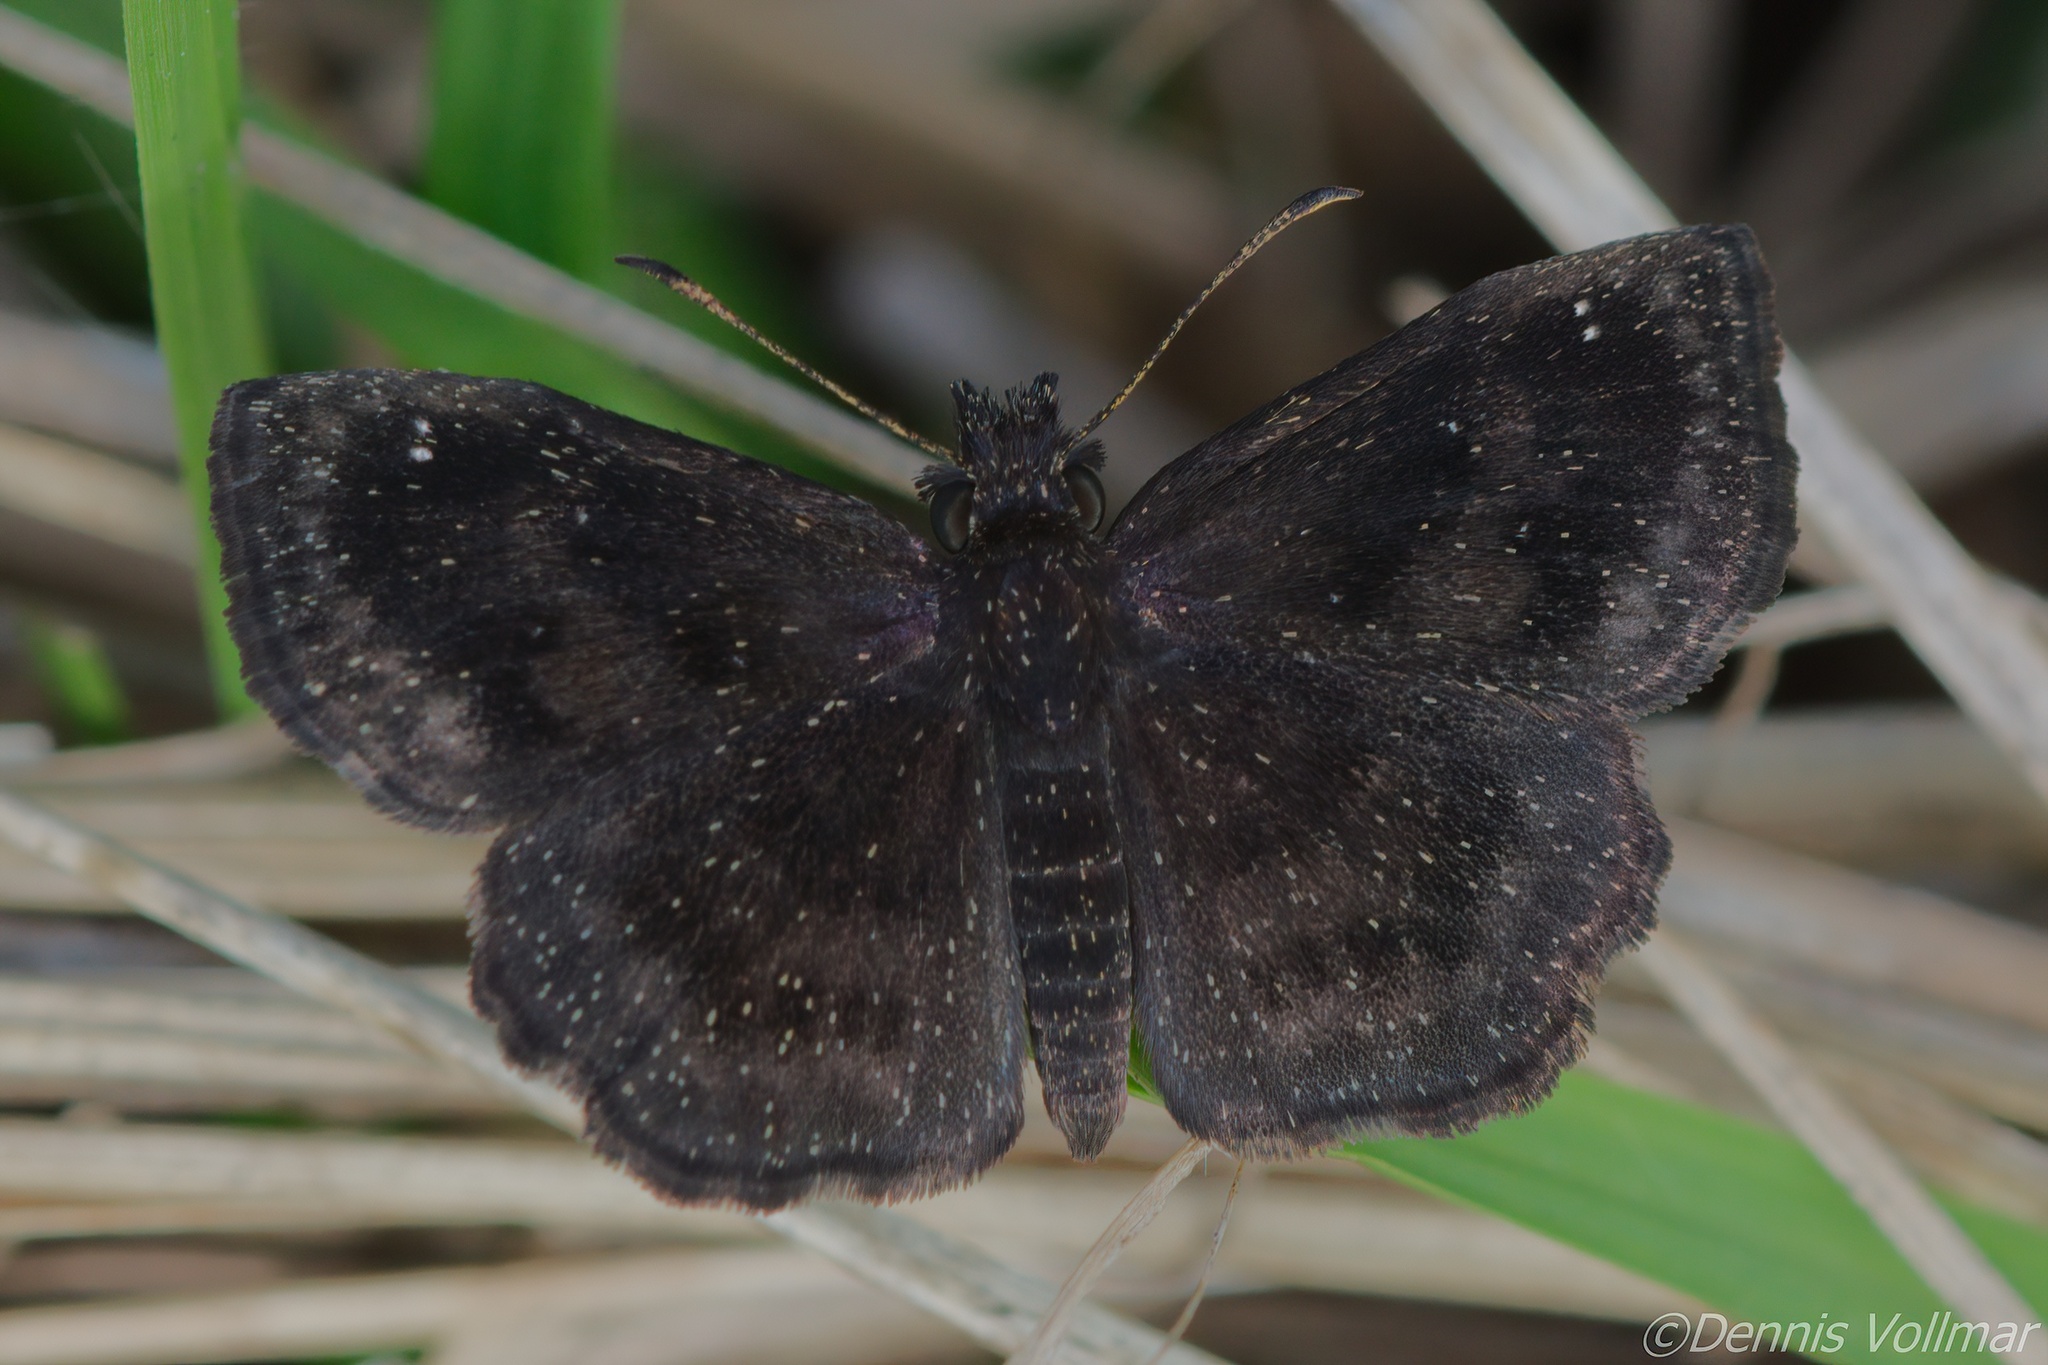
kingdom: Animalia
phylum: Arthropoda
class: Insecta
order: Lepidoptera
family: Hesperiidae
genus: Staphylus
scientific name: Staphylus mazans
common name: Mazans scallopwing
